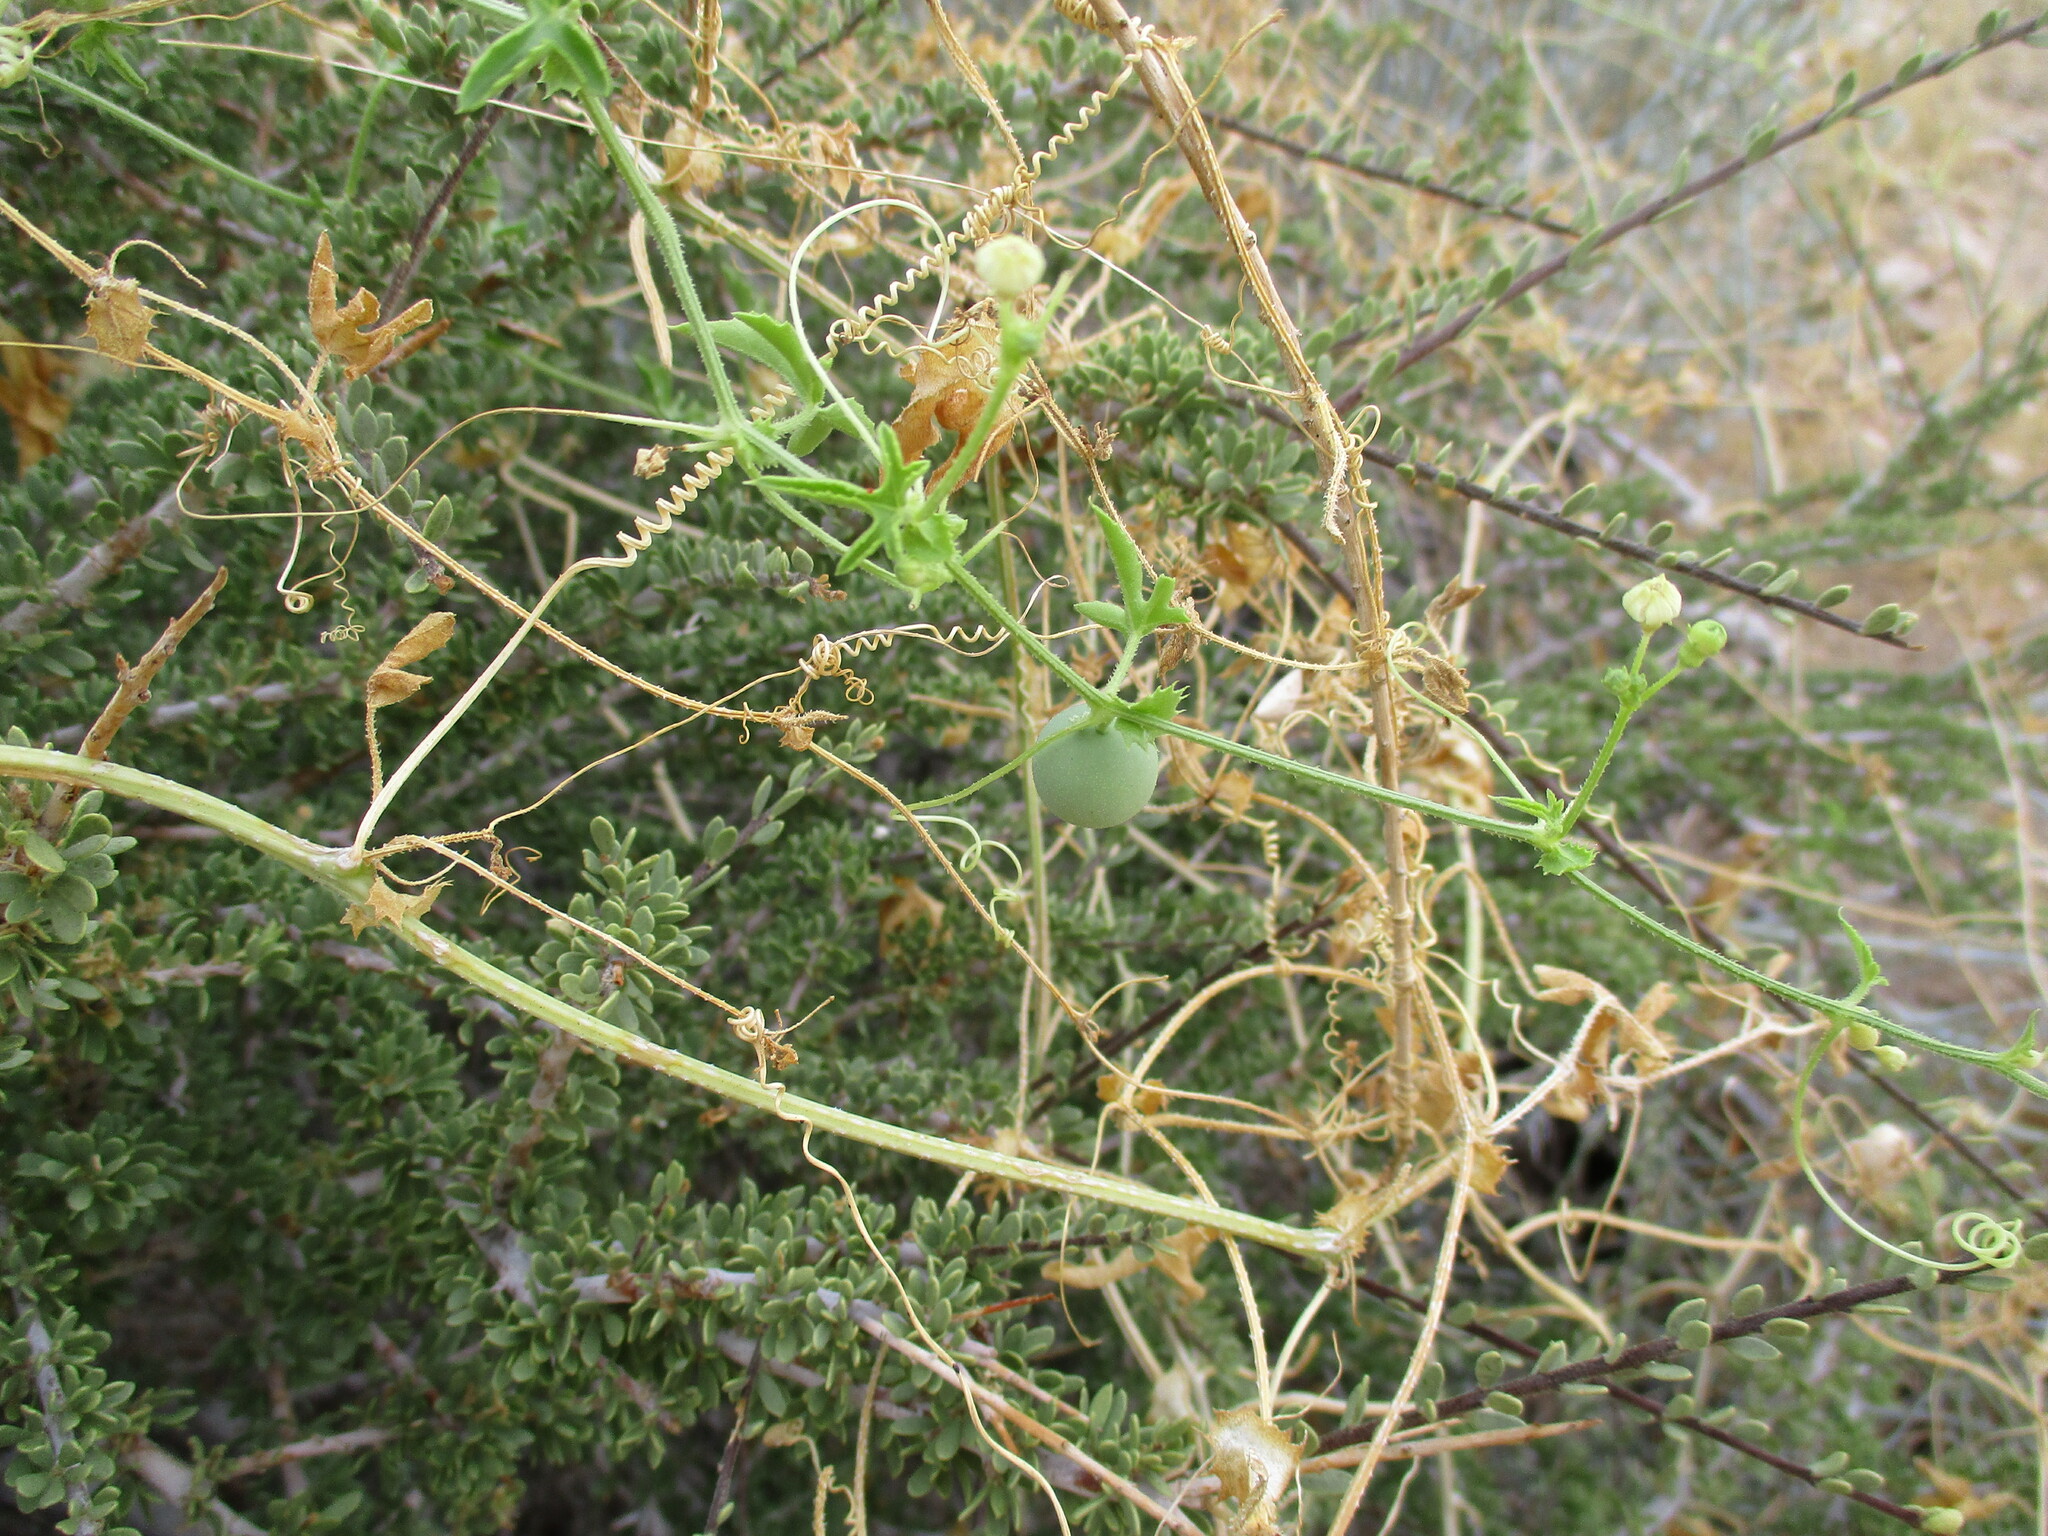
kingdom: Plantae
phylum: Tracheophyta
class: Magnoliopsida
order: Cucurbitales
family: Cucurbitaceae
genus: Dactyliandra
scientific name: Dactyliandra welwitschii
